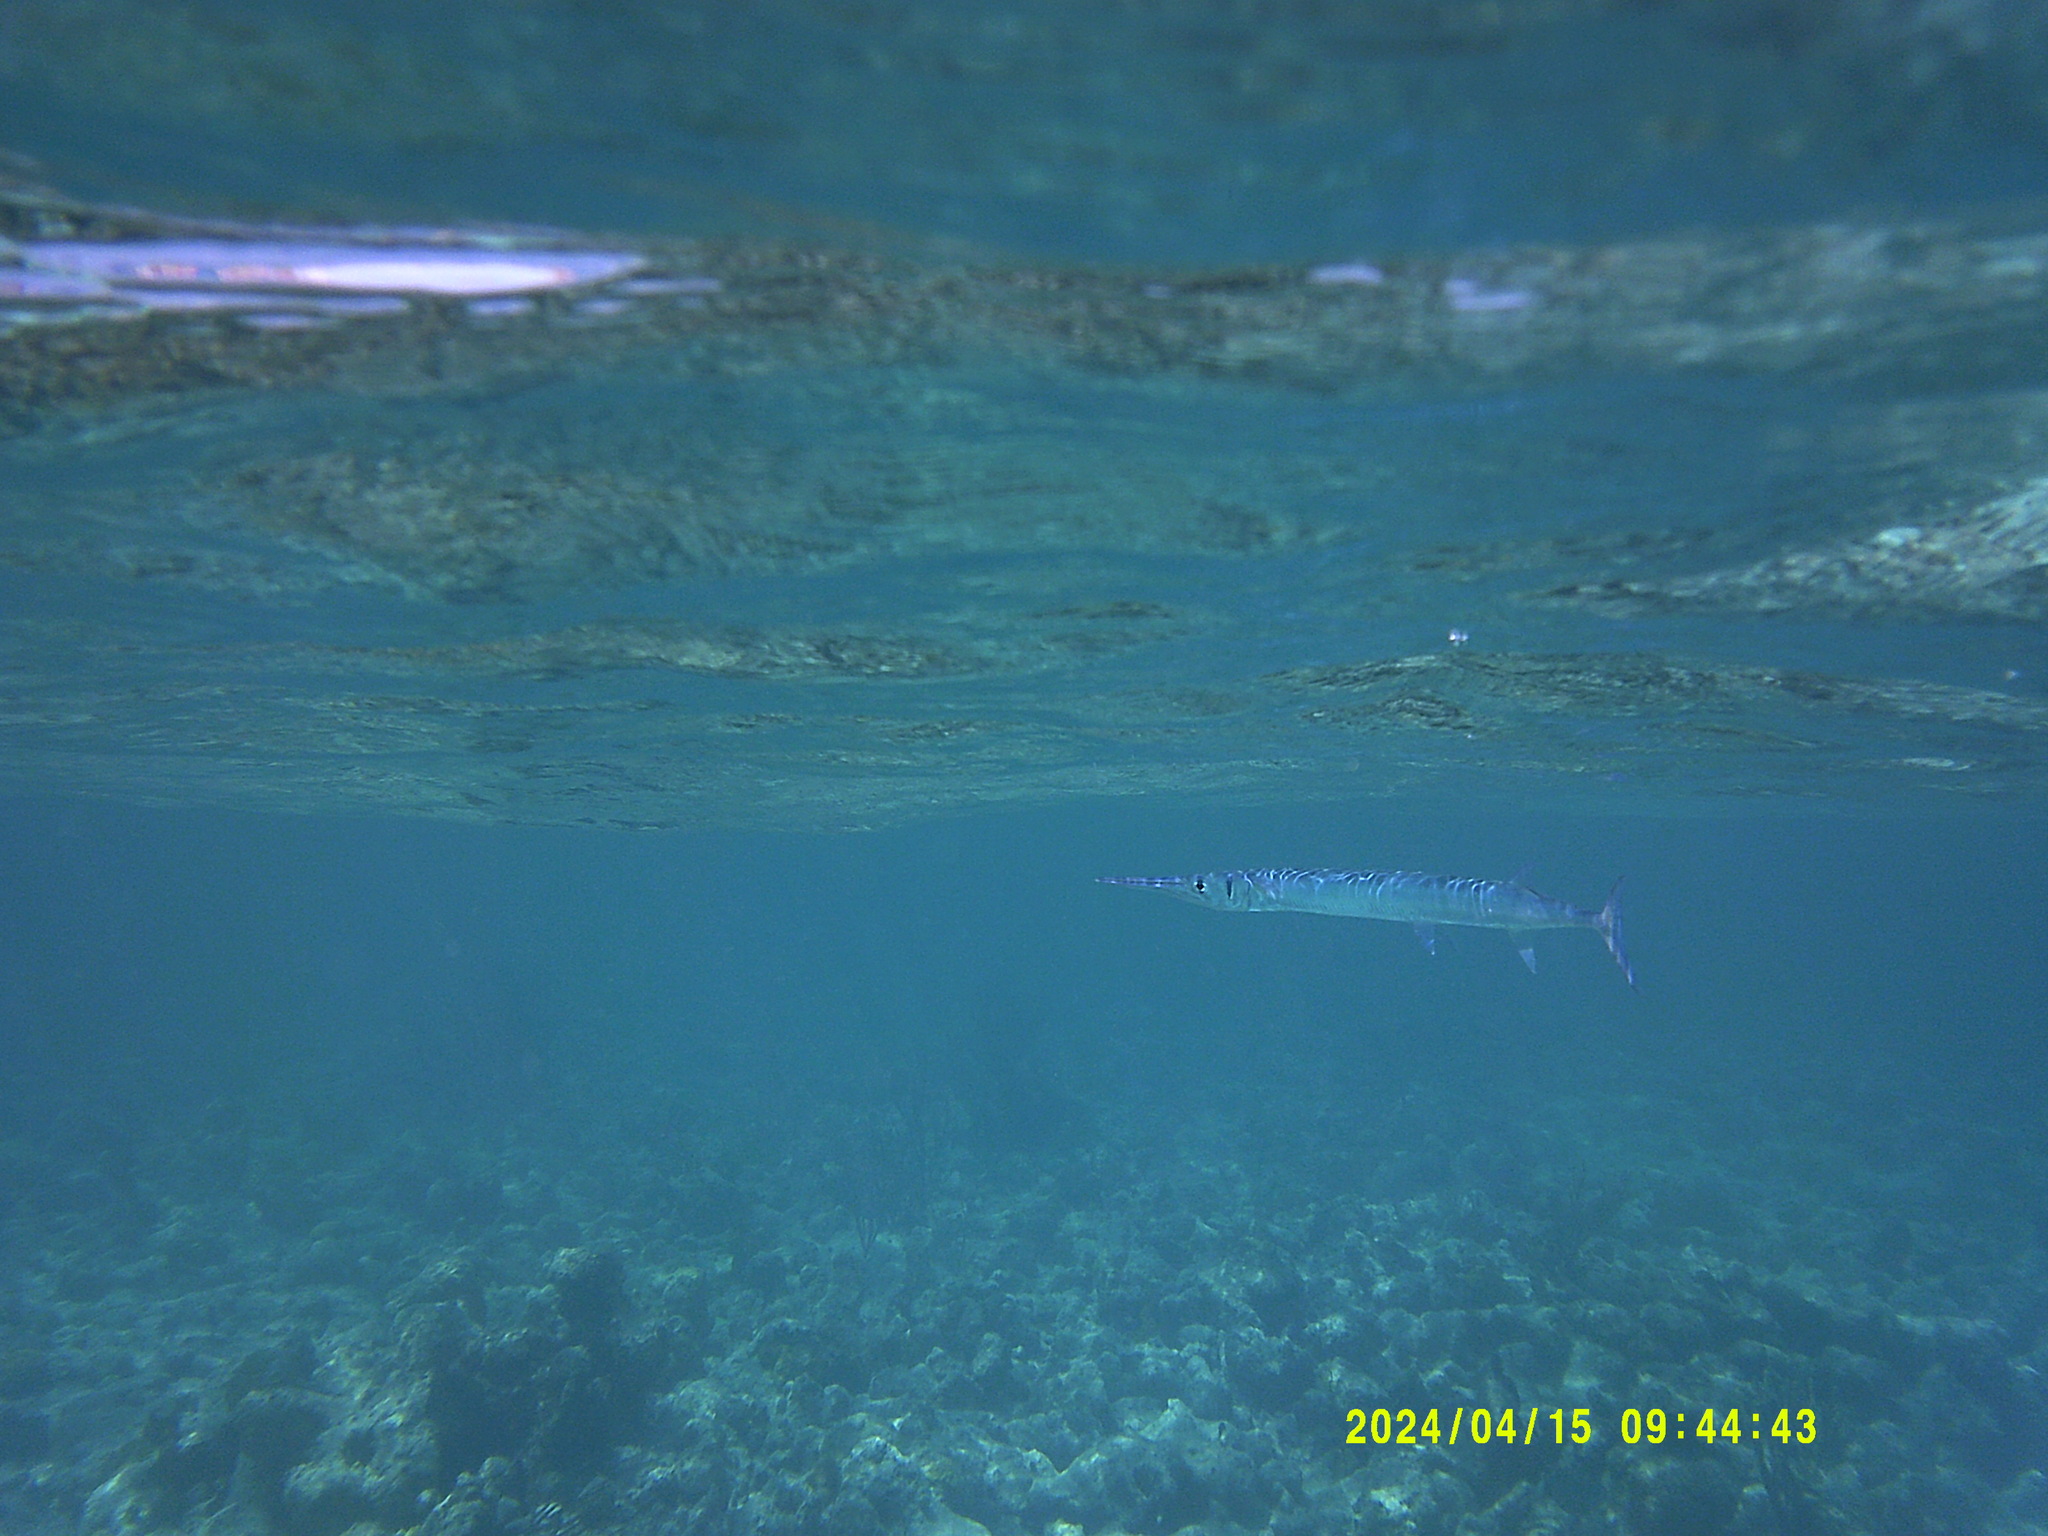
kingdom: Animalia
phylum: Chordata
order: Beloniformes
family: Belonidae
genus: Tylosurus
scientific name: Tylosurus crocodilus
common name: Houndfish
